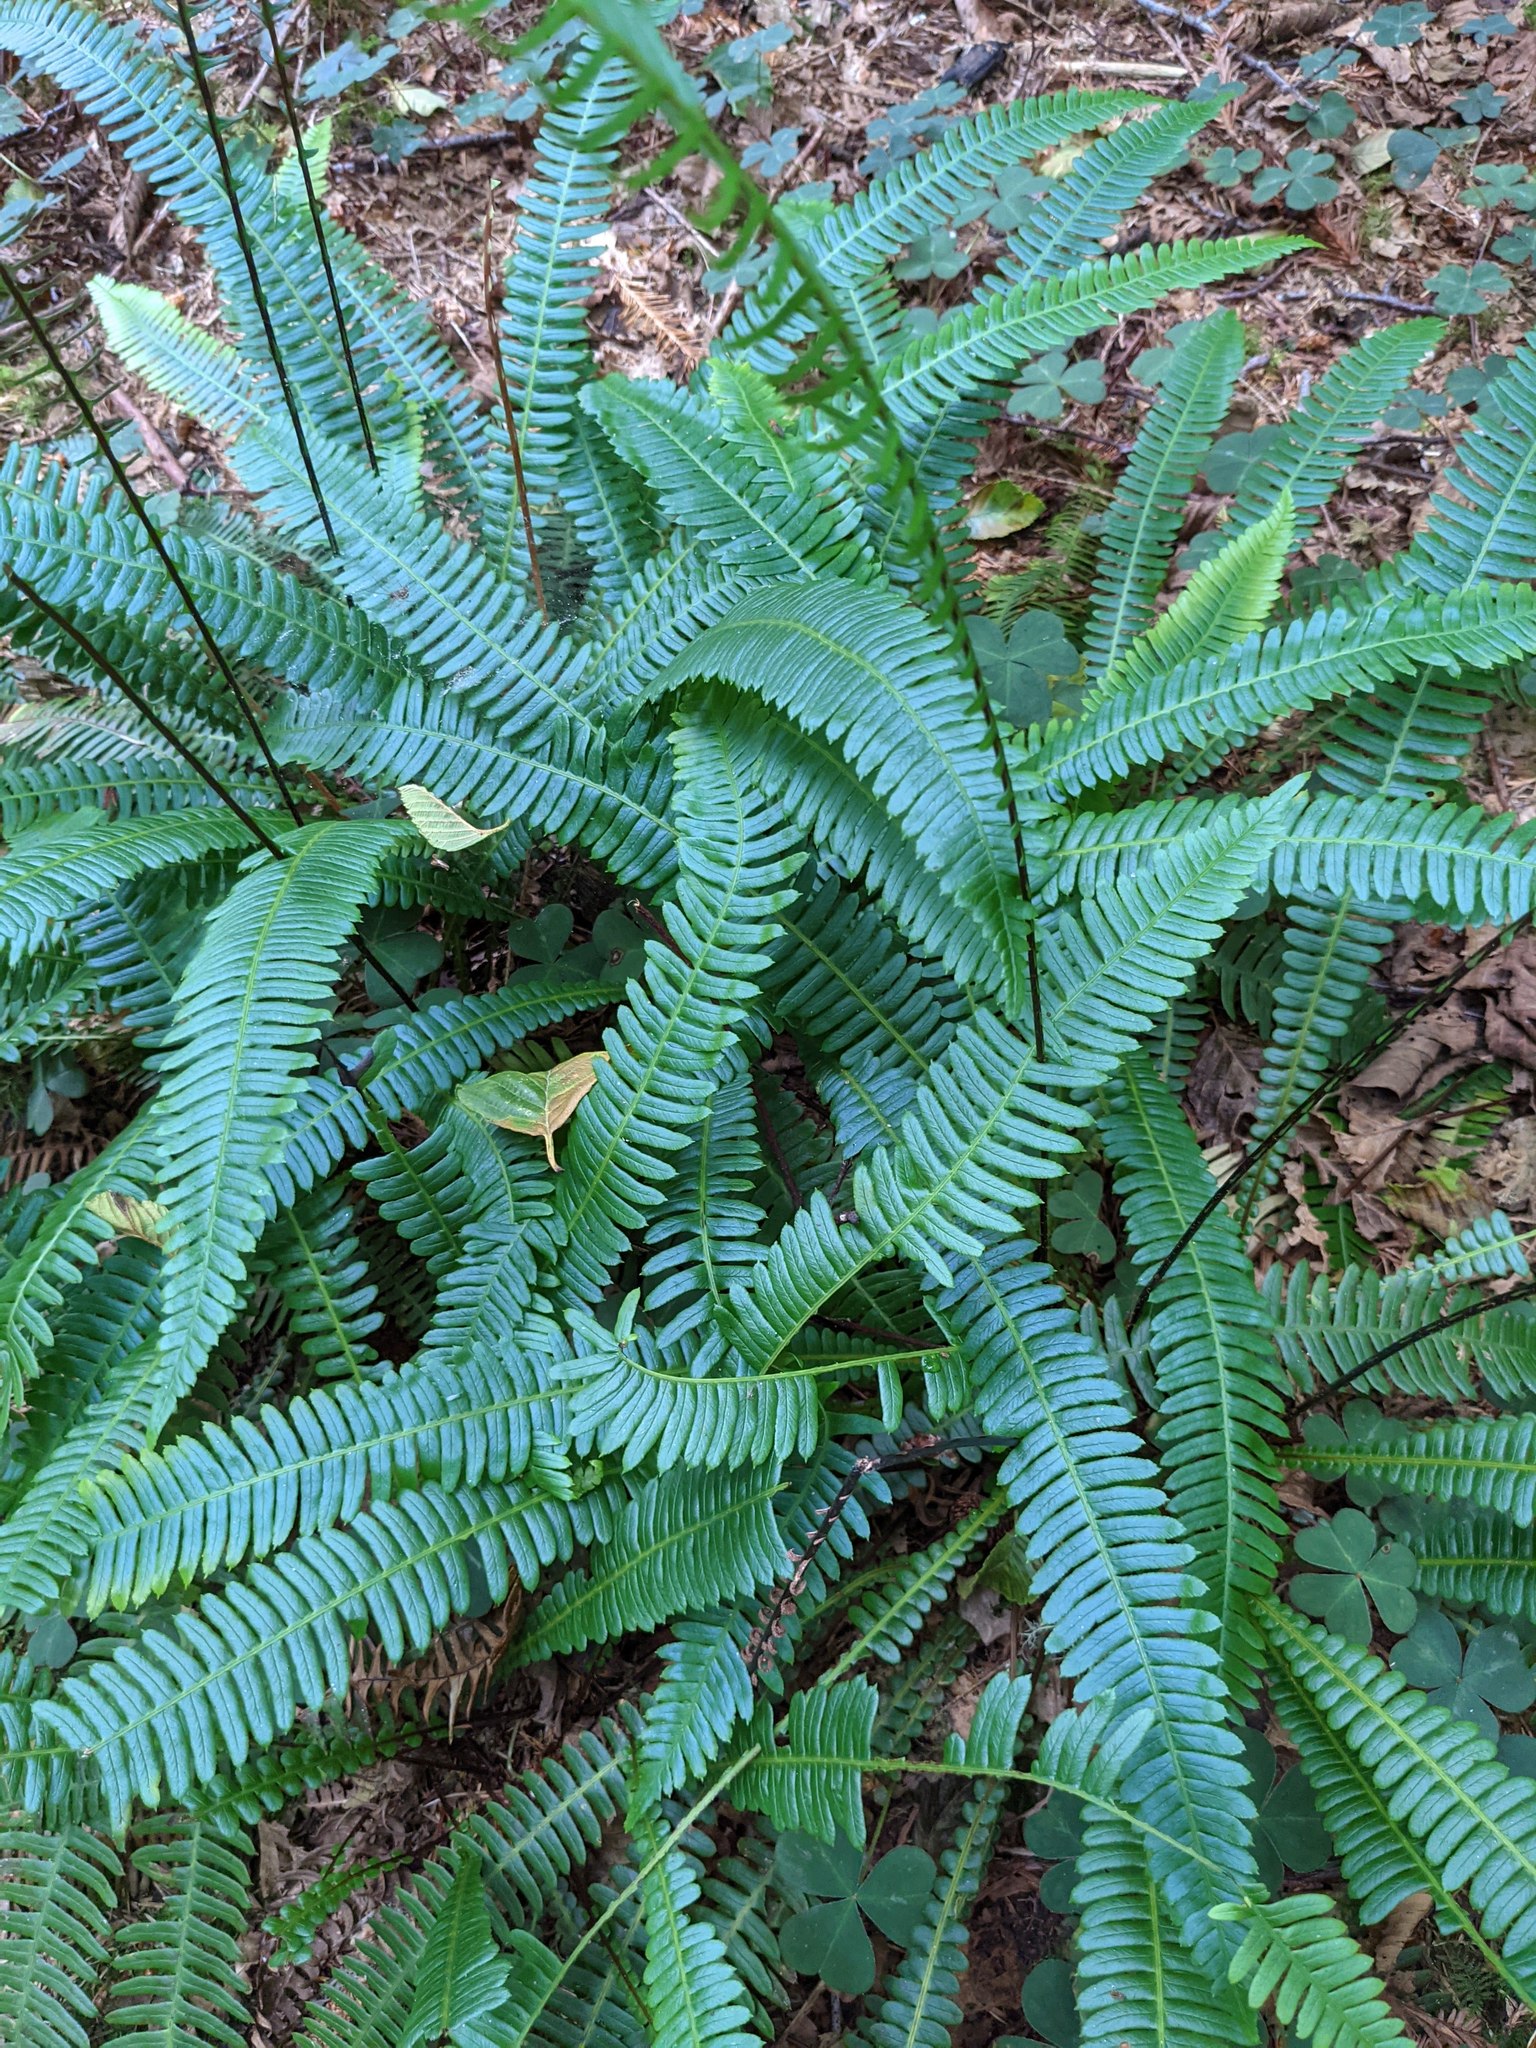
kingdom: Plantae
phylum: Tracheophyta
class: Polypodiopsida
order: Polypodiales
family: Blechnaceae
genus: Struthiopteris
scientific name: Struthiopteris spicant
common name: Deer fern
